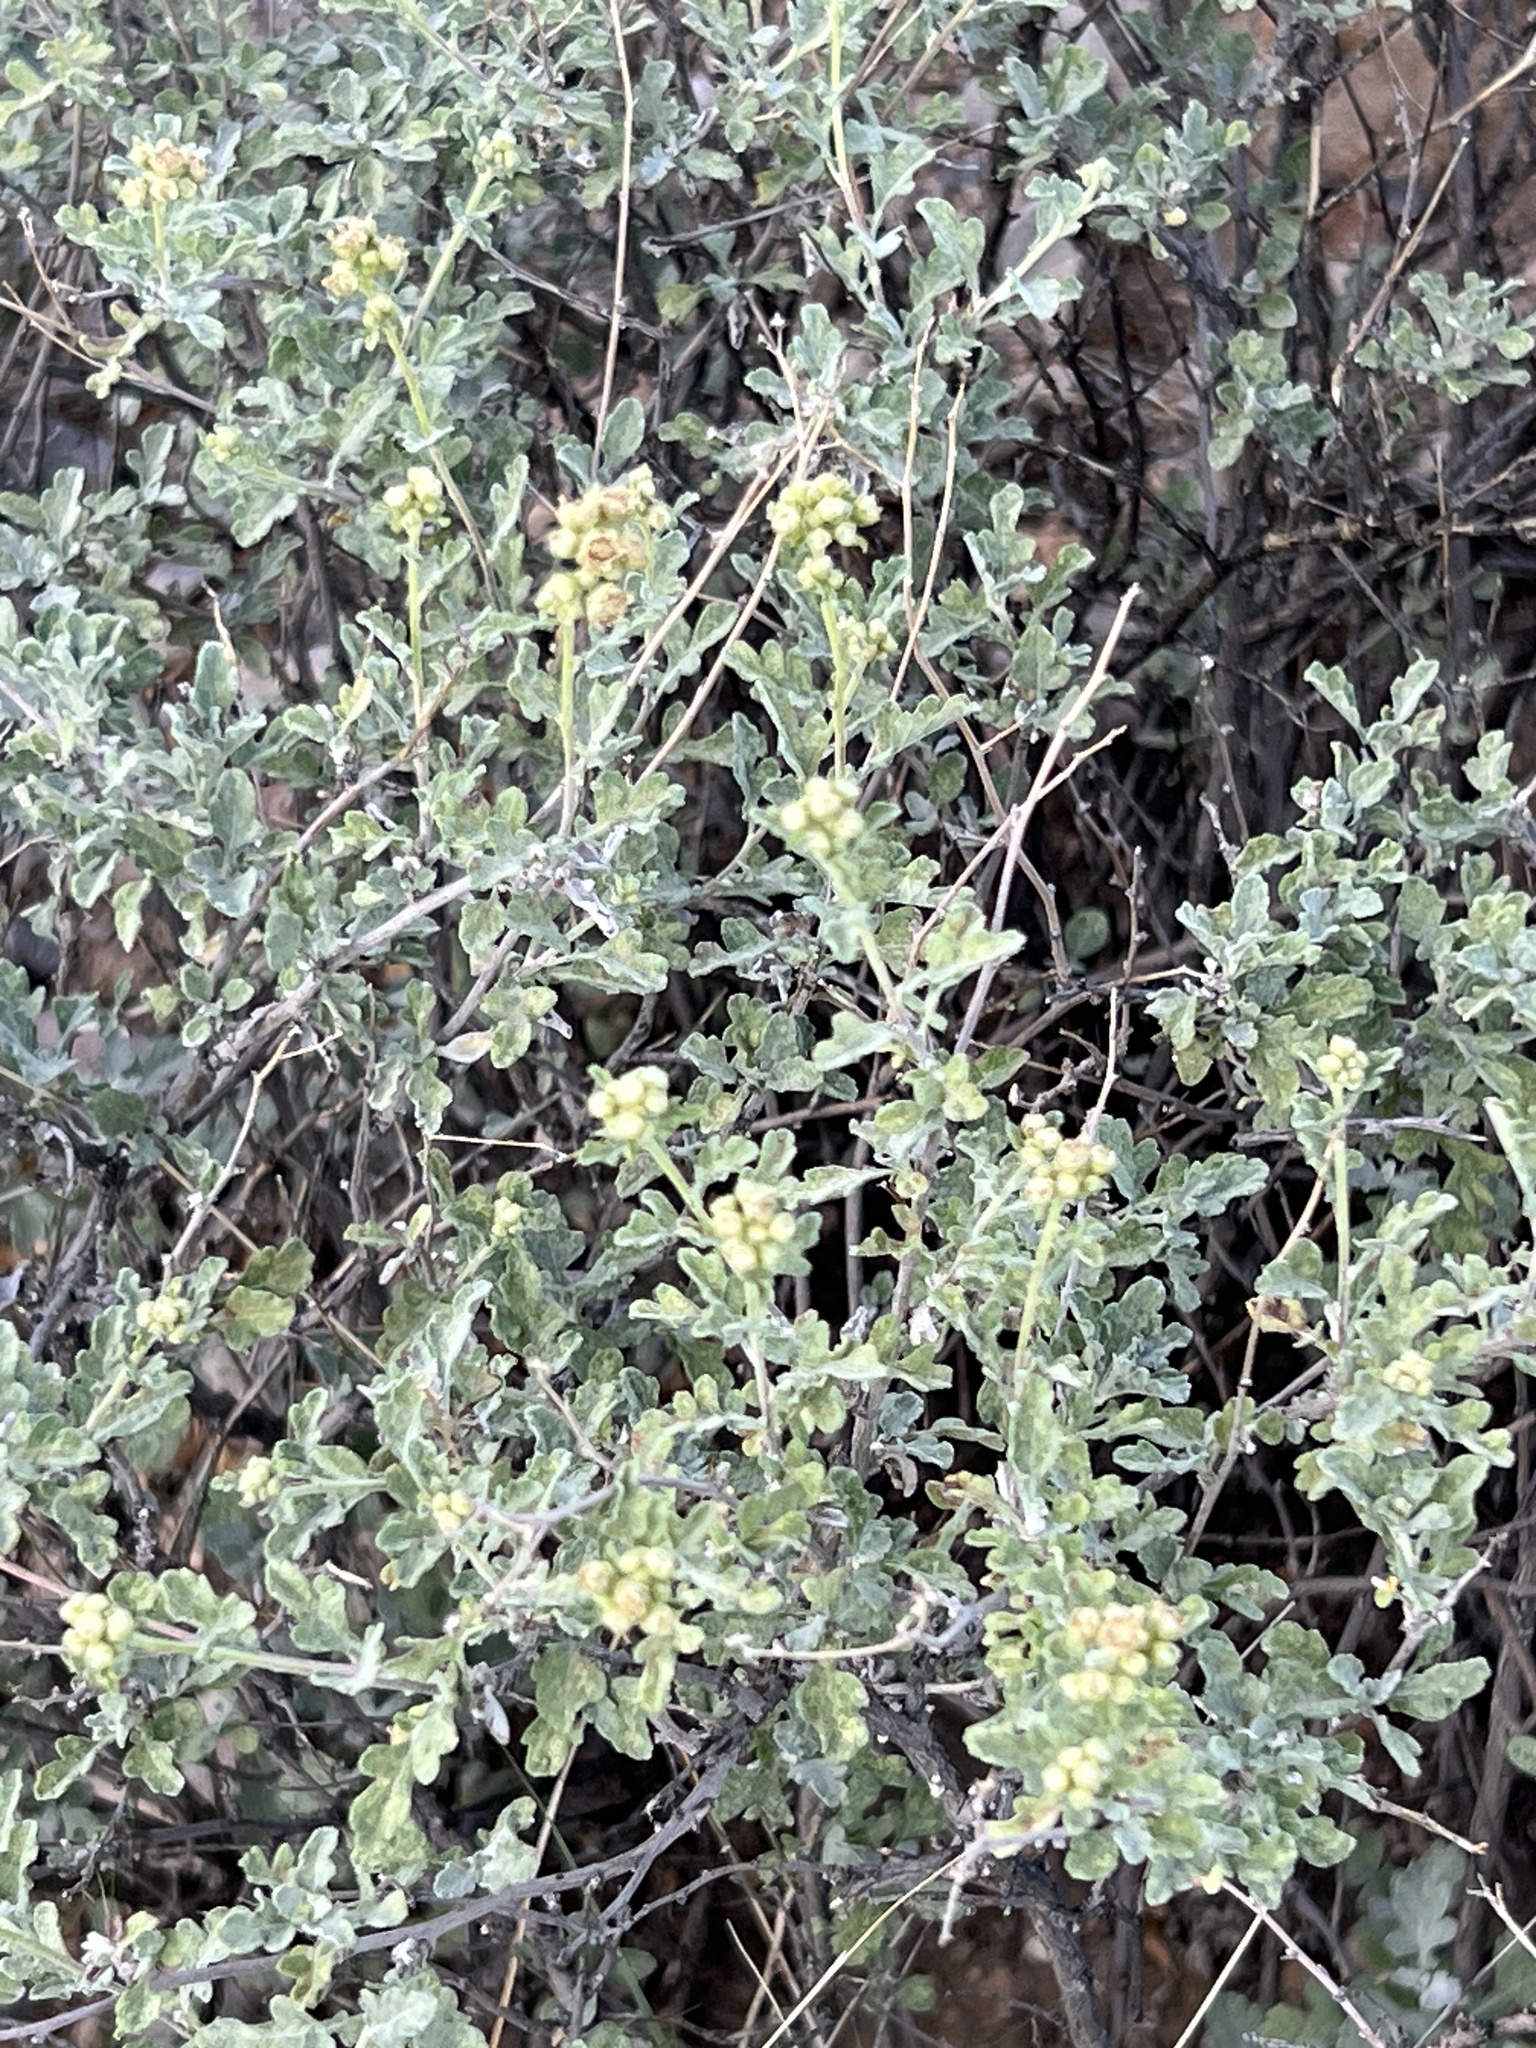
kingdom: Plantae
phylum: Tracheophyta
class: Magnoliopsida
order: Asterales
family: Asteraceae
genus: Parthenium
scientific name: Parthenium incanum
